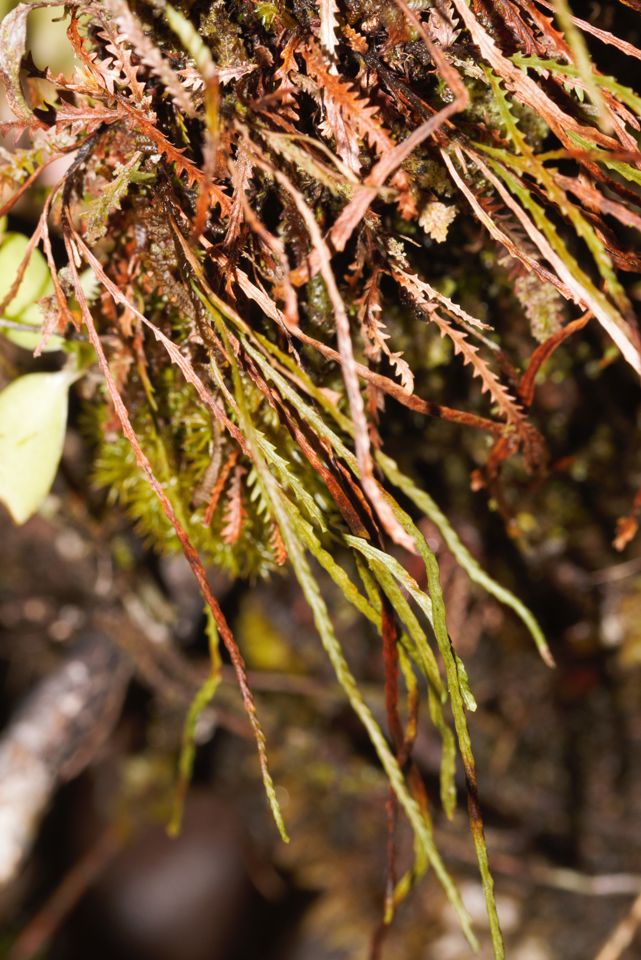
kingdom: Plantae
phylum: Tracheophyta
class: Polypodiopsida
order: Polypodiales
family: Polypodiaceae
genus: Cochlidium
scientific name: Cochlidium serrulatum
